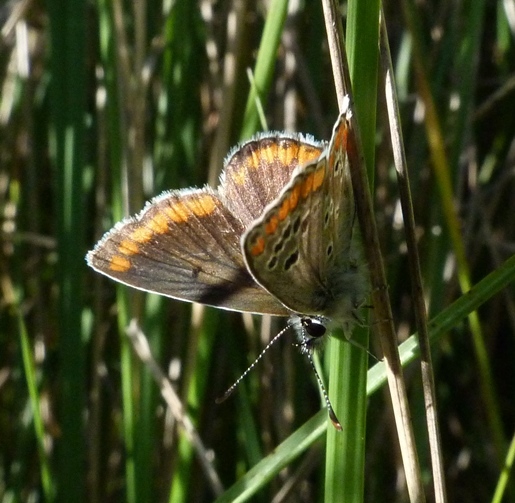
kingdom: Animalia
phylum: Arthropoda
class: Insecta
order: Lepidoptera
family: Lycaenidae
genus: Aricia
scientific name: Aricia cramera
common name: Eschscholtz´s brown  argus
